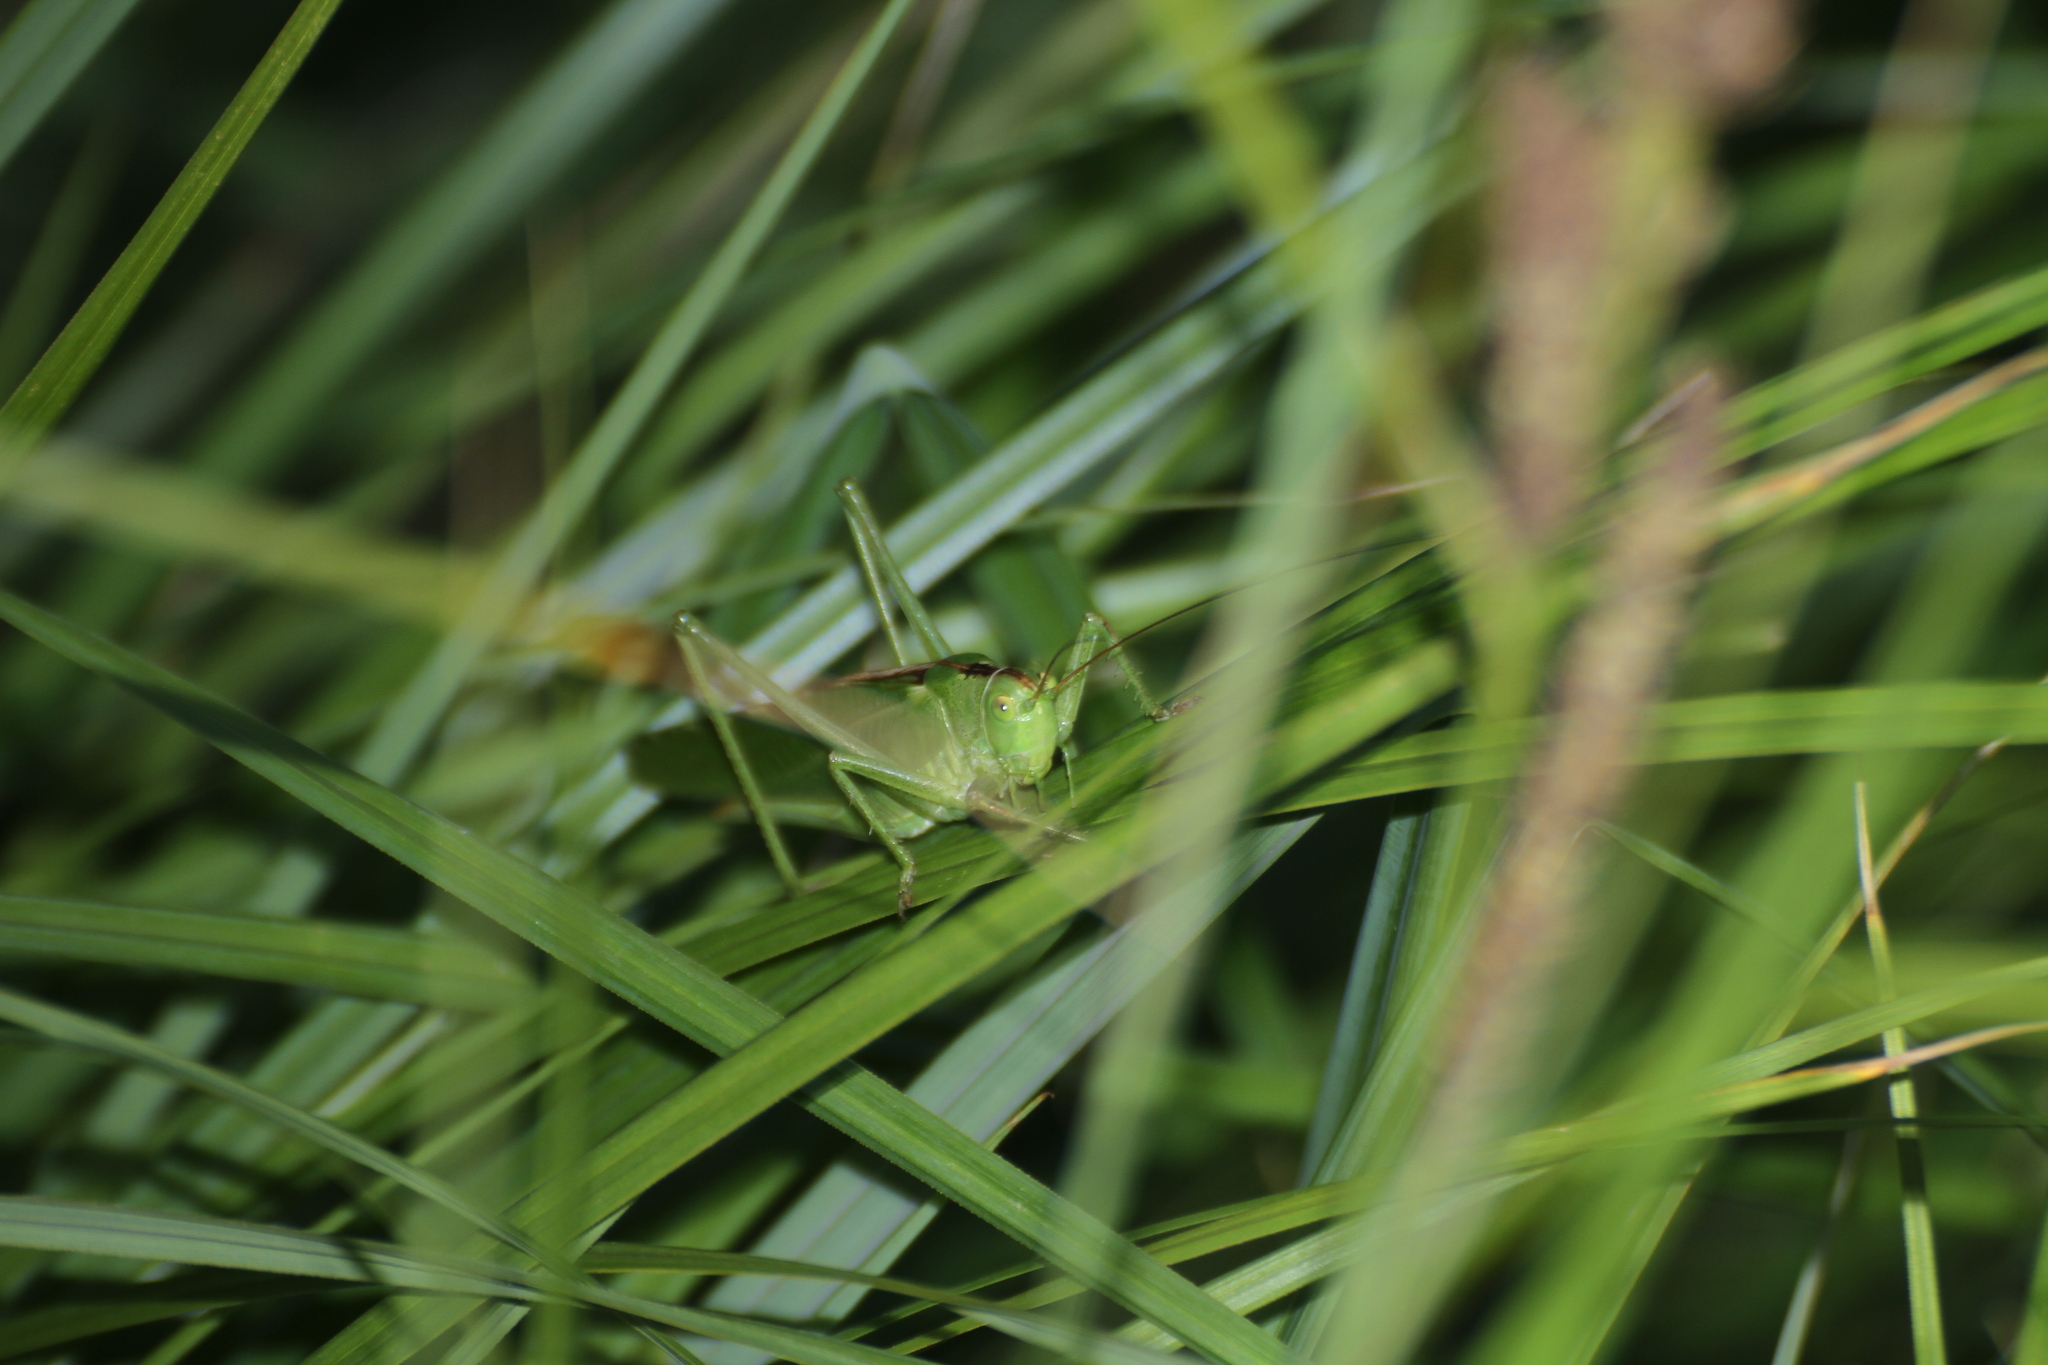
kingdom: Animalia
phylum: Arthropoda
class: Insecta
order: Orthoptera
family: Tettigoniidae
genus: Tettigonia
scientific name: Tettigonia viridissima
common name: Great green bush-cricket
